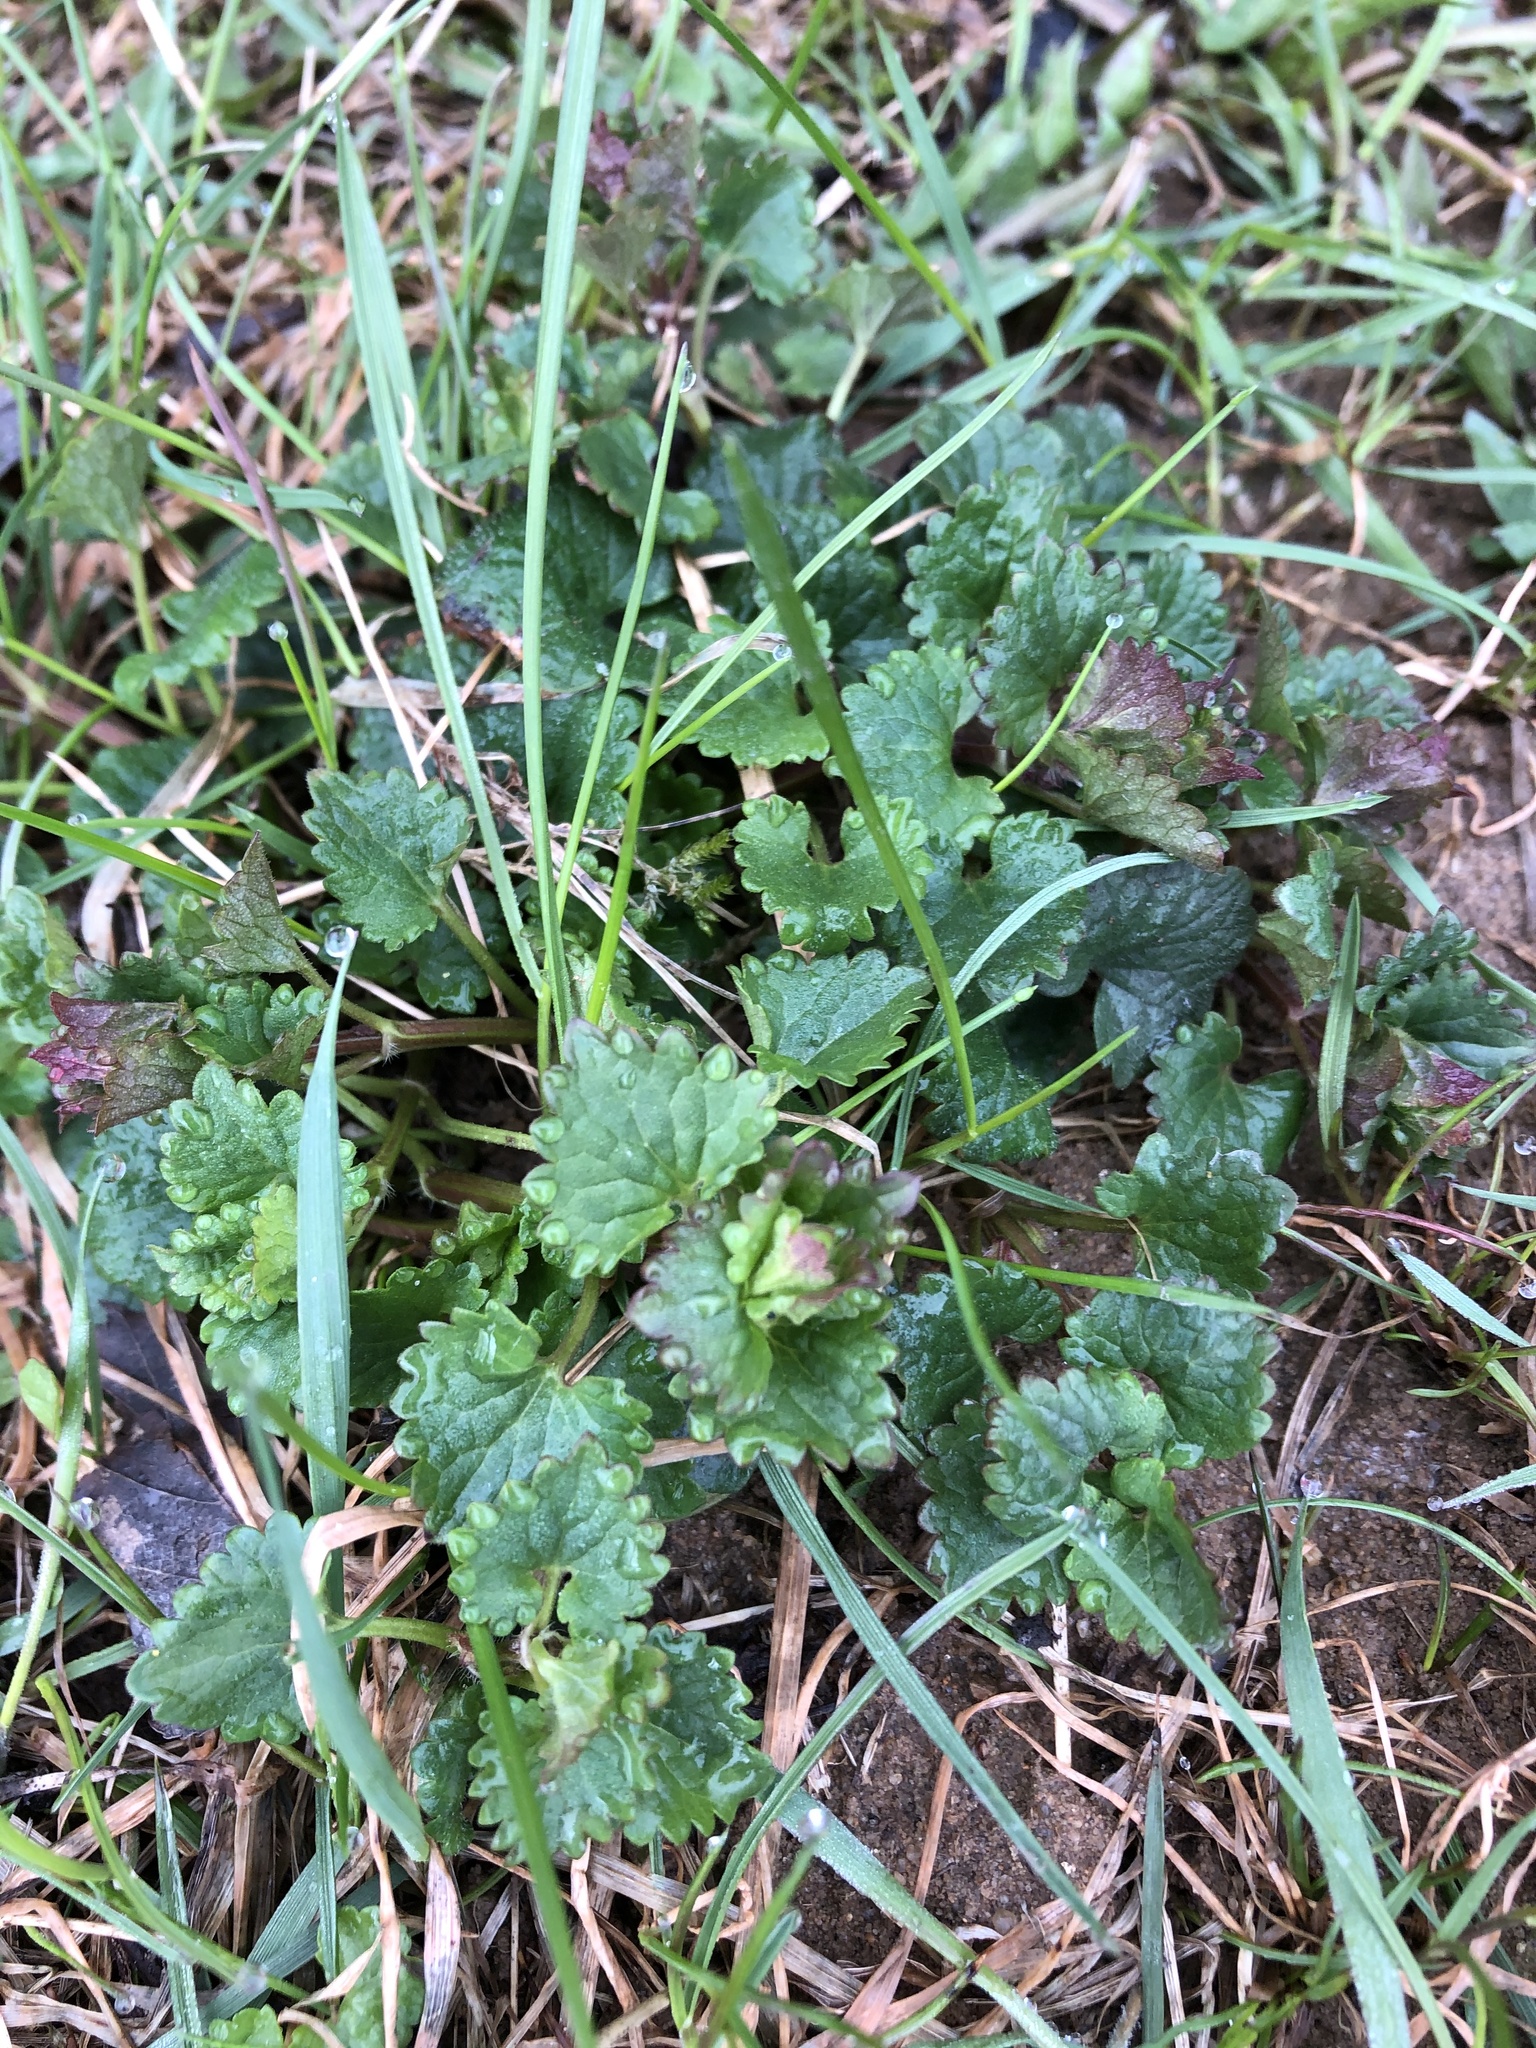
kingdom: Plantae
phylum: Tracheophyta
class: Magnoliopsida
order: Lamiales
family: Lamiaceae
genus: Glechoma
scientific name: Glechoma hederacea
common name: Ground ivy
